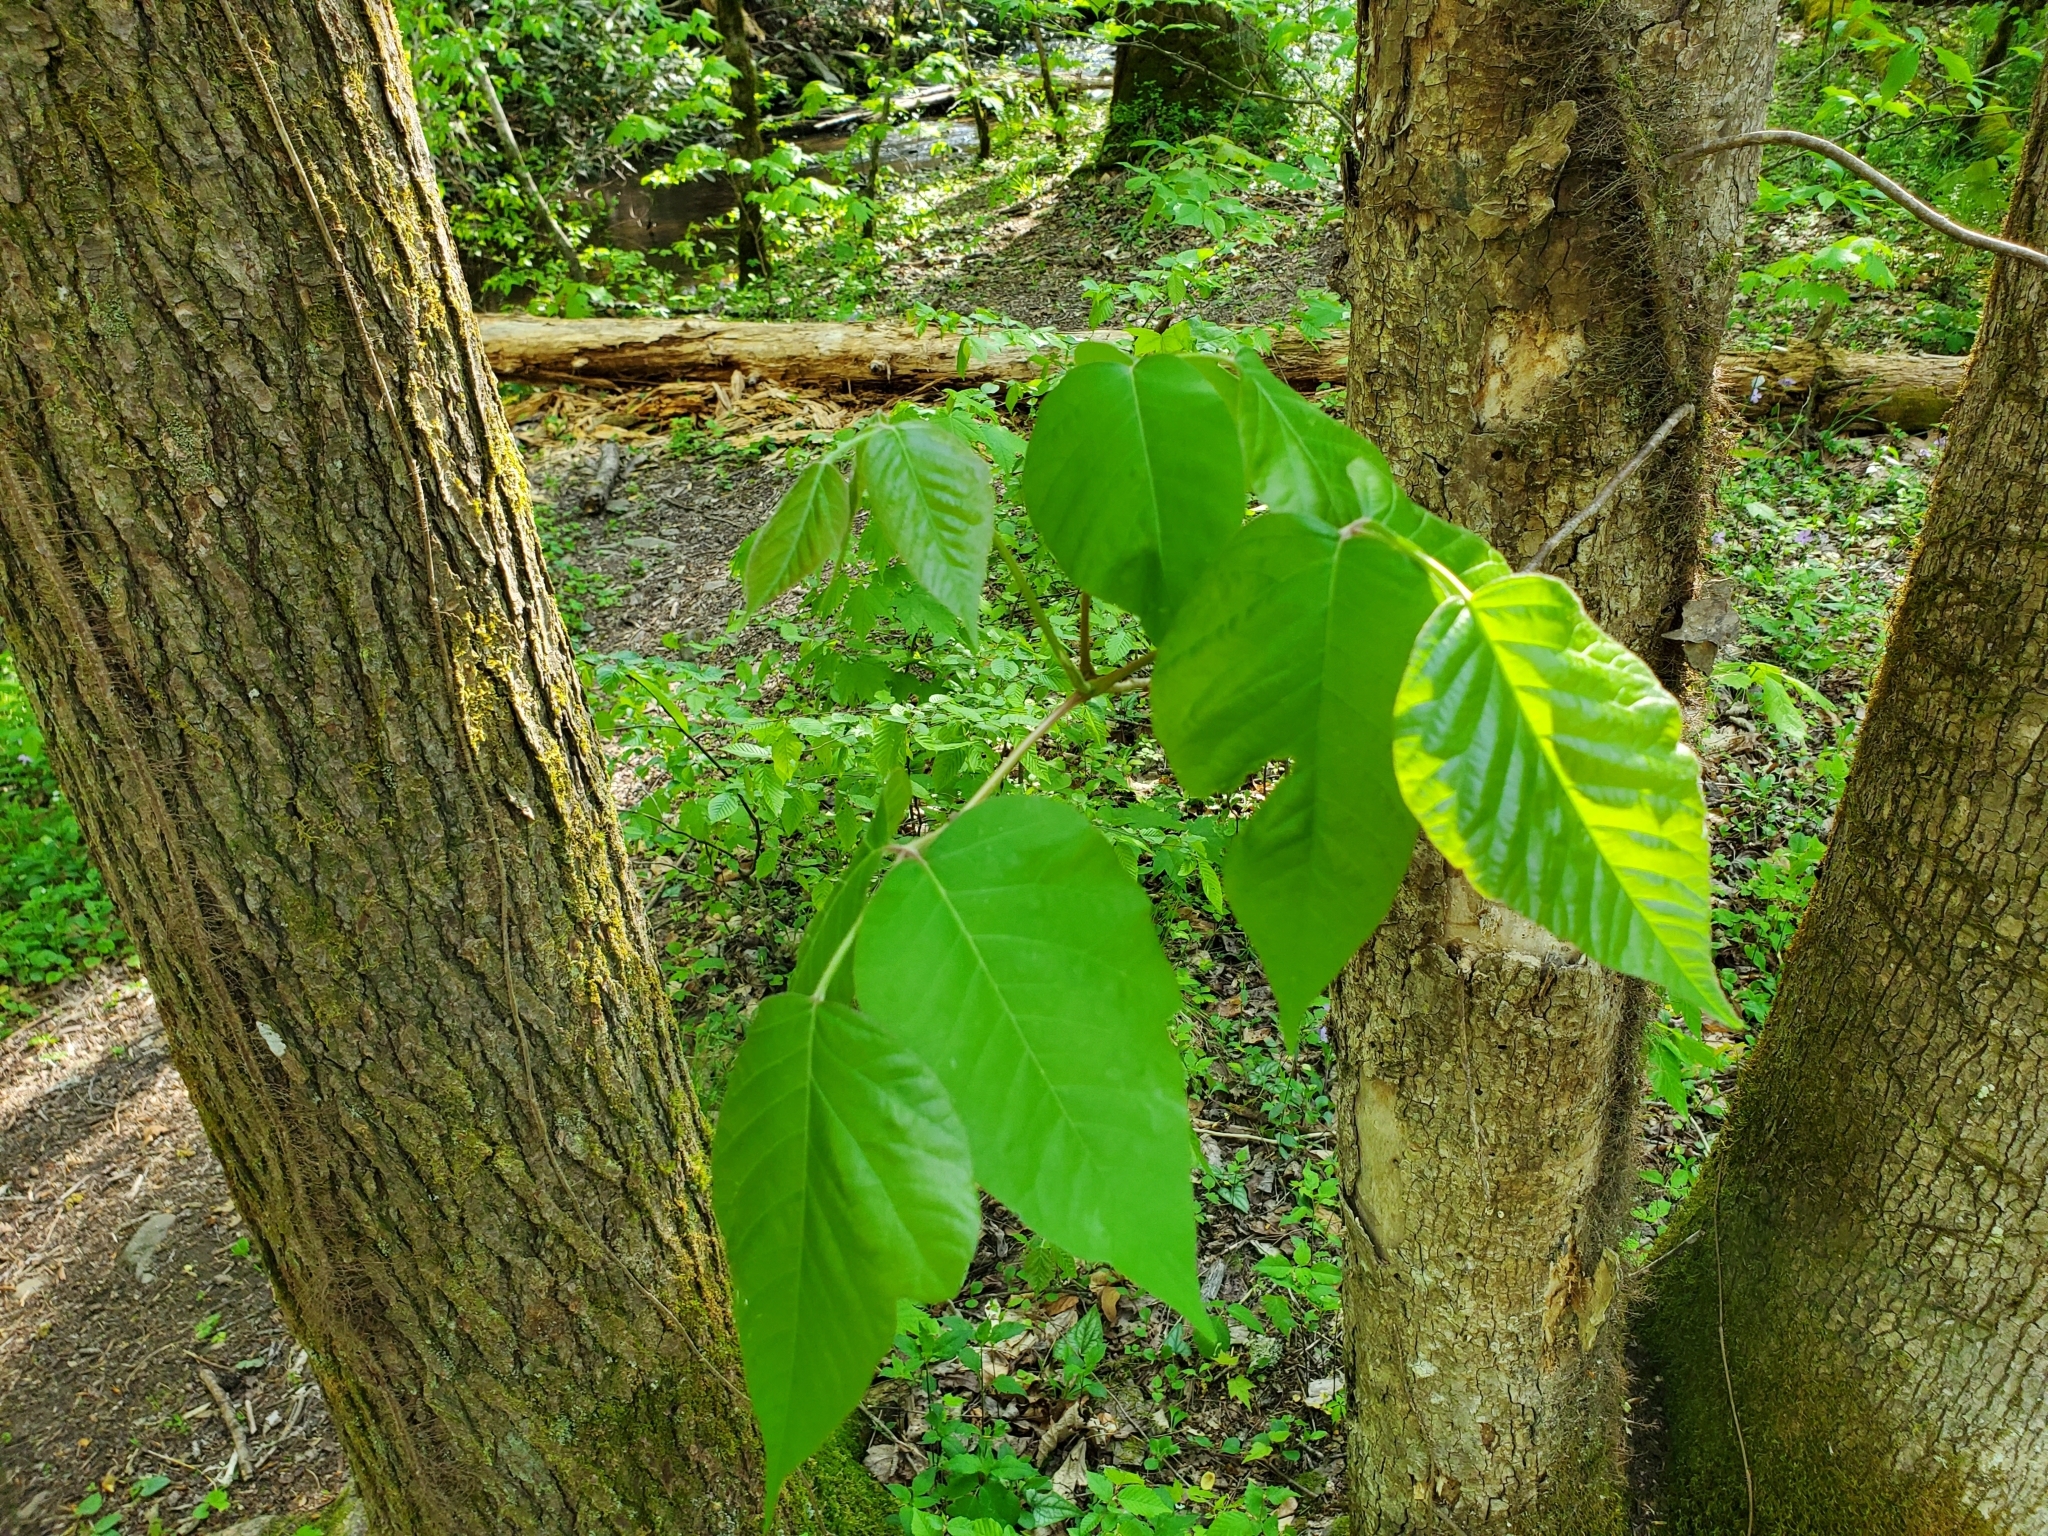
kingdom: Plantae
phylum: Tracheophyta
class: Magnoliopsida
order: Sapindales
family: Anacardiaceae
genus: Toxicodendron
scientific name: Toxicodendron radicans
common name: Poison ivy
